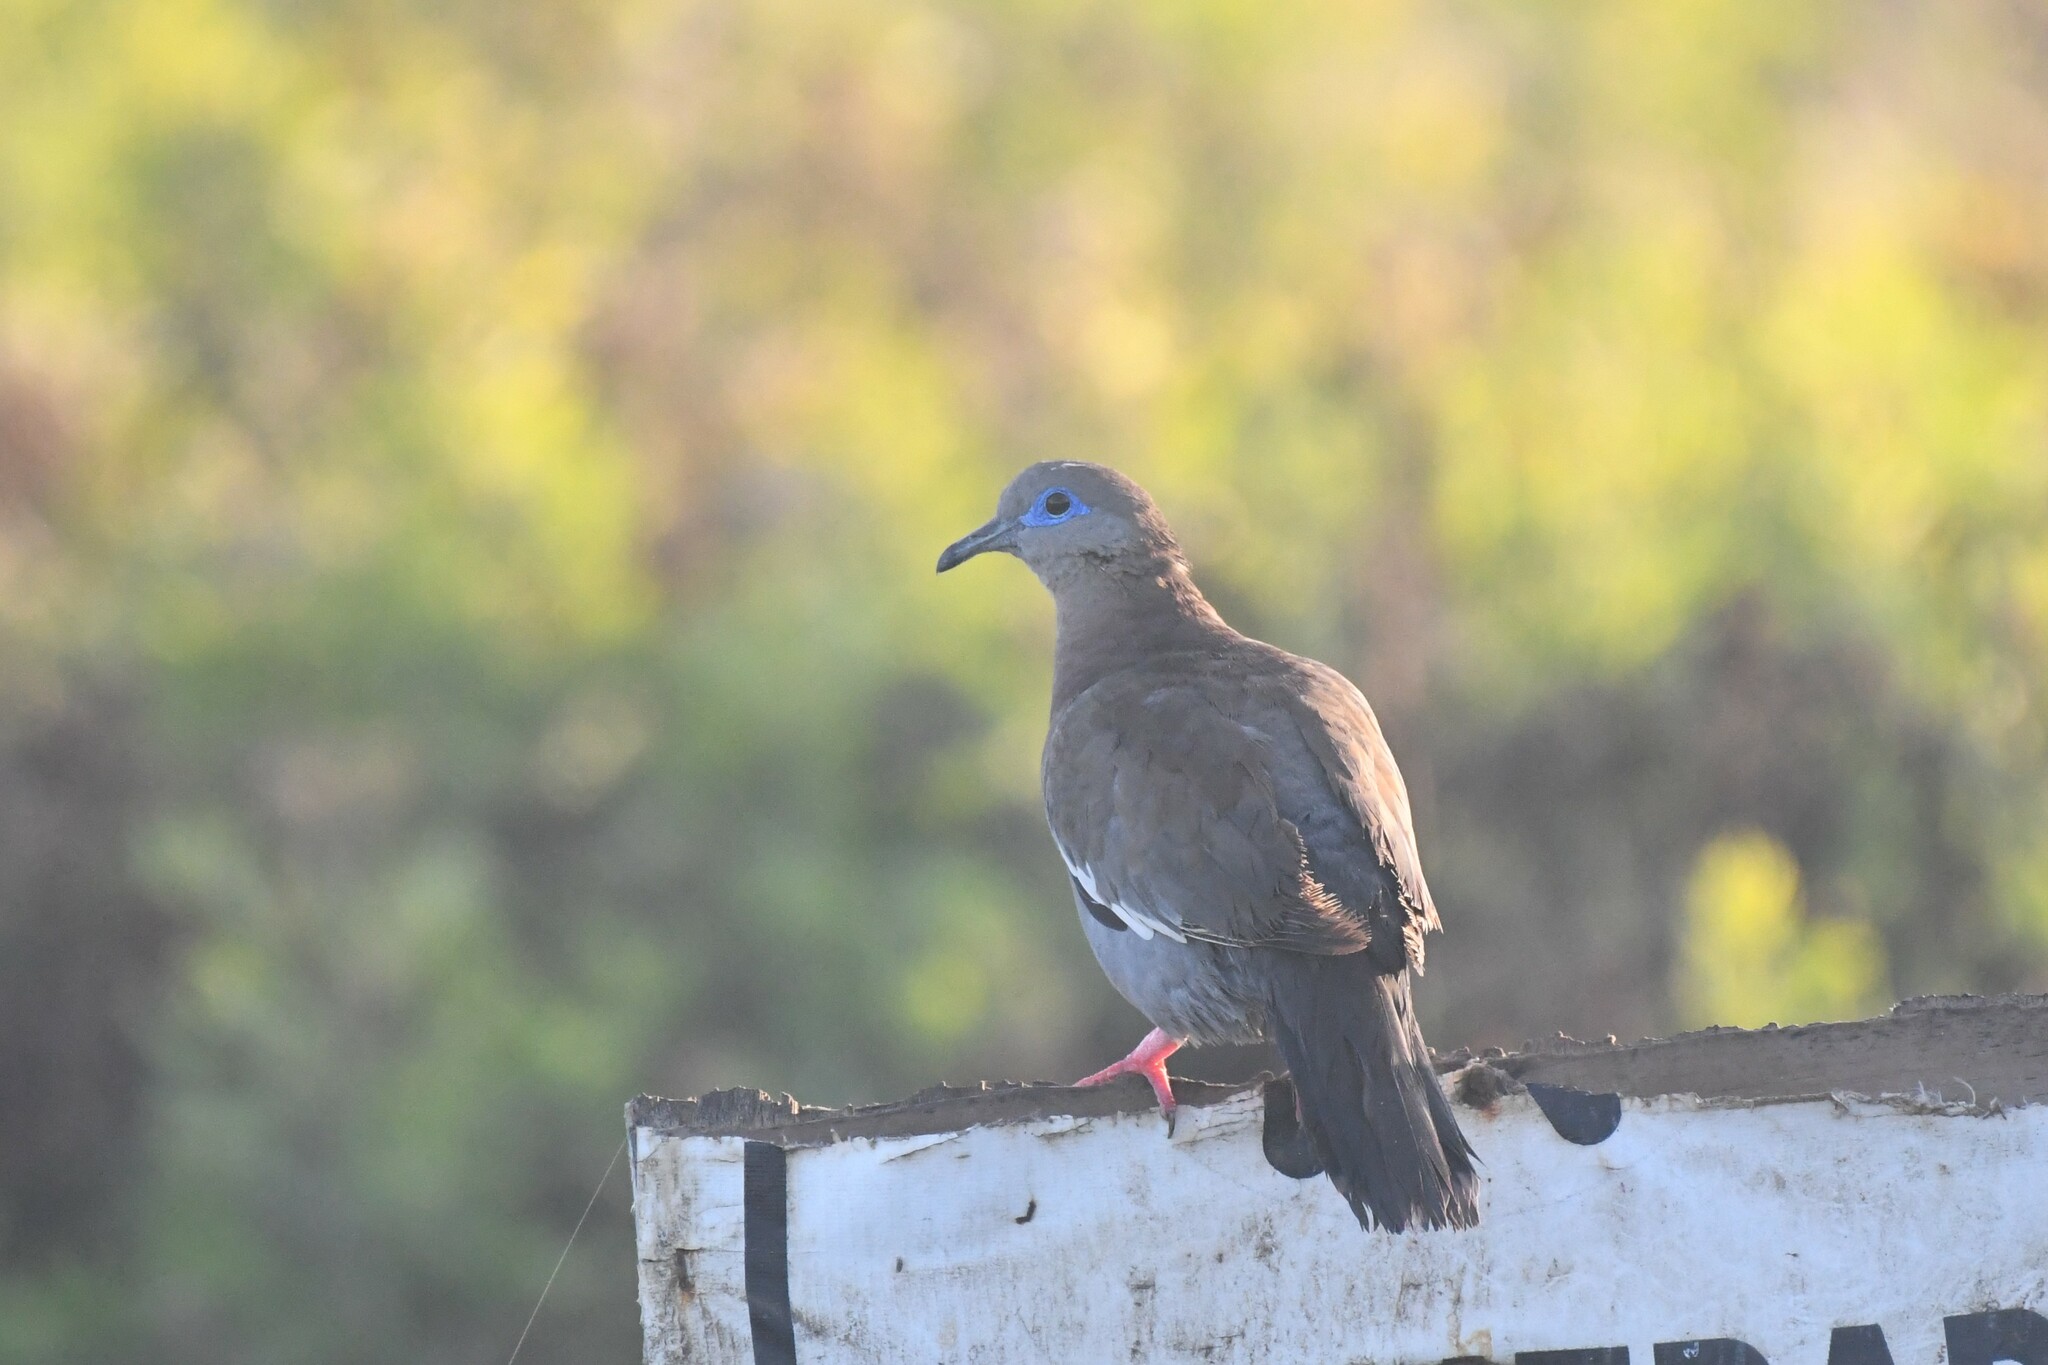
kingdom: Animalia
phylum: Chordata
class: Aves
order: Columbiformes
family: Columbidae
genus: Zenaida
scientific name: Zenaida meloda
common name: West peruvian dove
